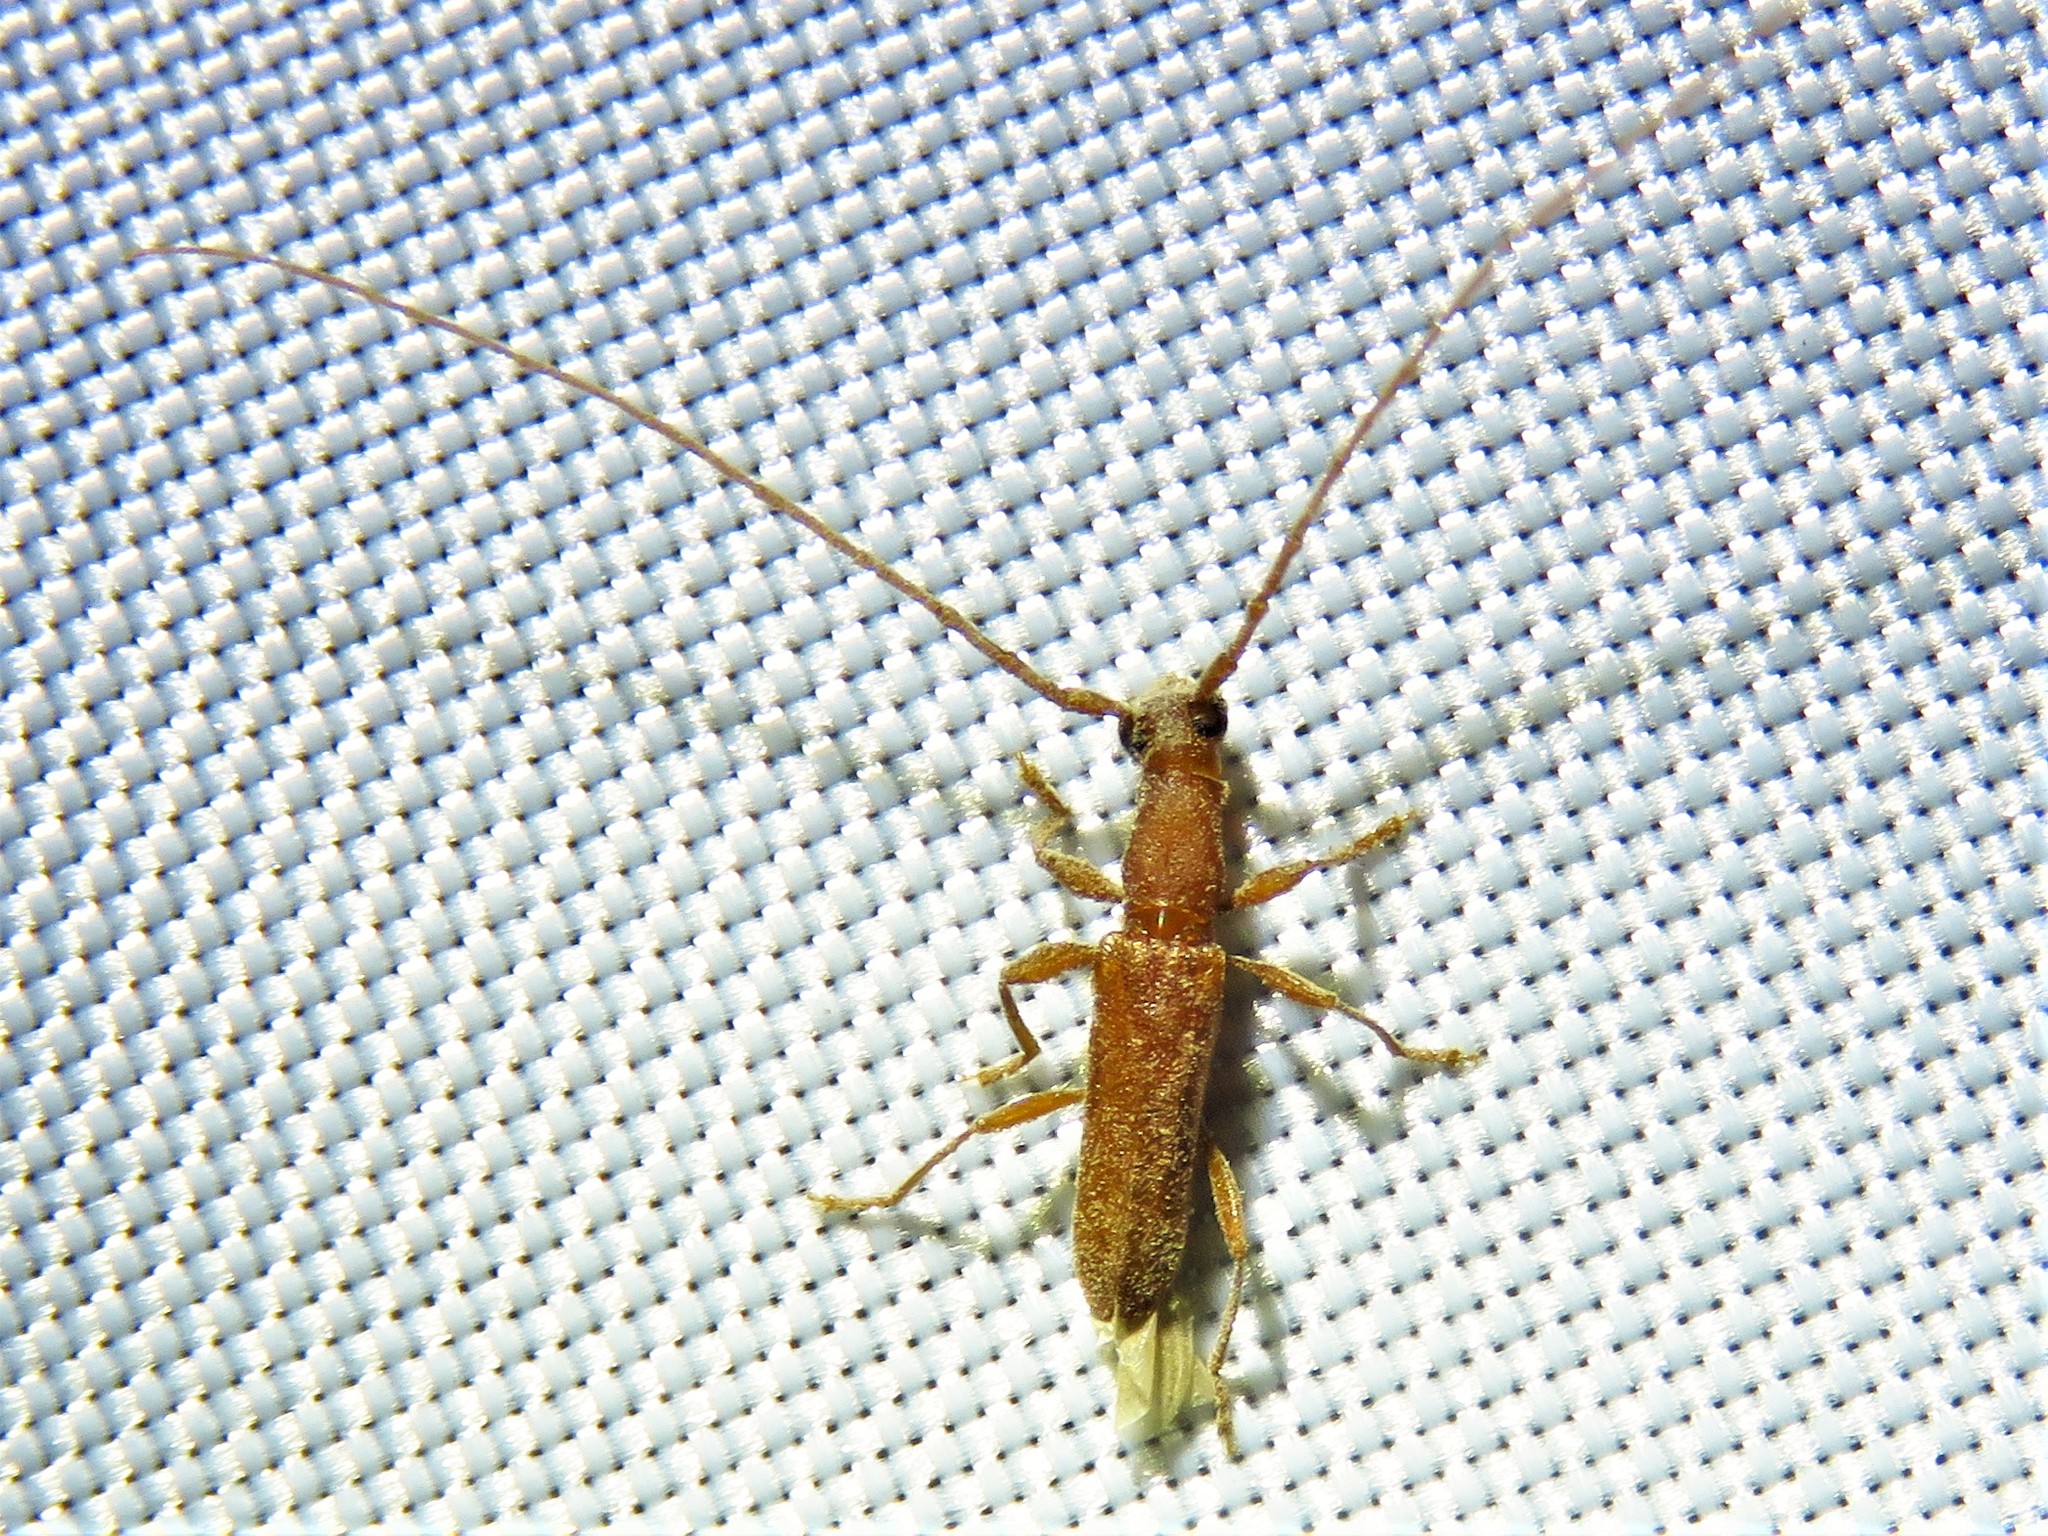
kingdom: Animalia
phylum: Arthropoda
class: Insecta
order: Coleoptera
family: Cerambycidae
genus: Hypexilis
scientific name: Hypexilis pallida
